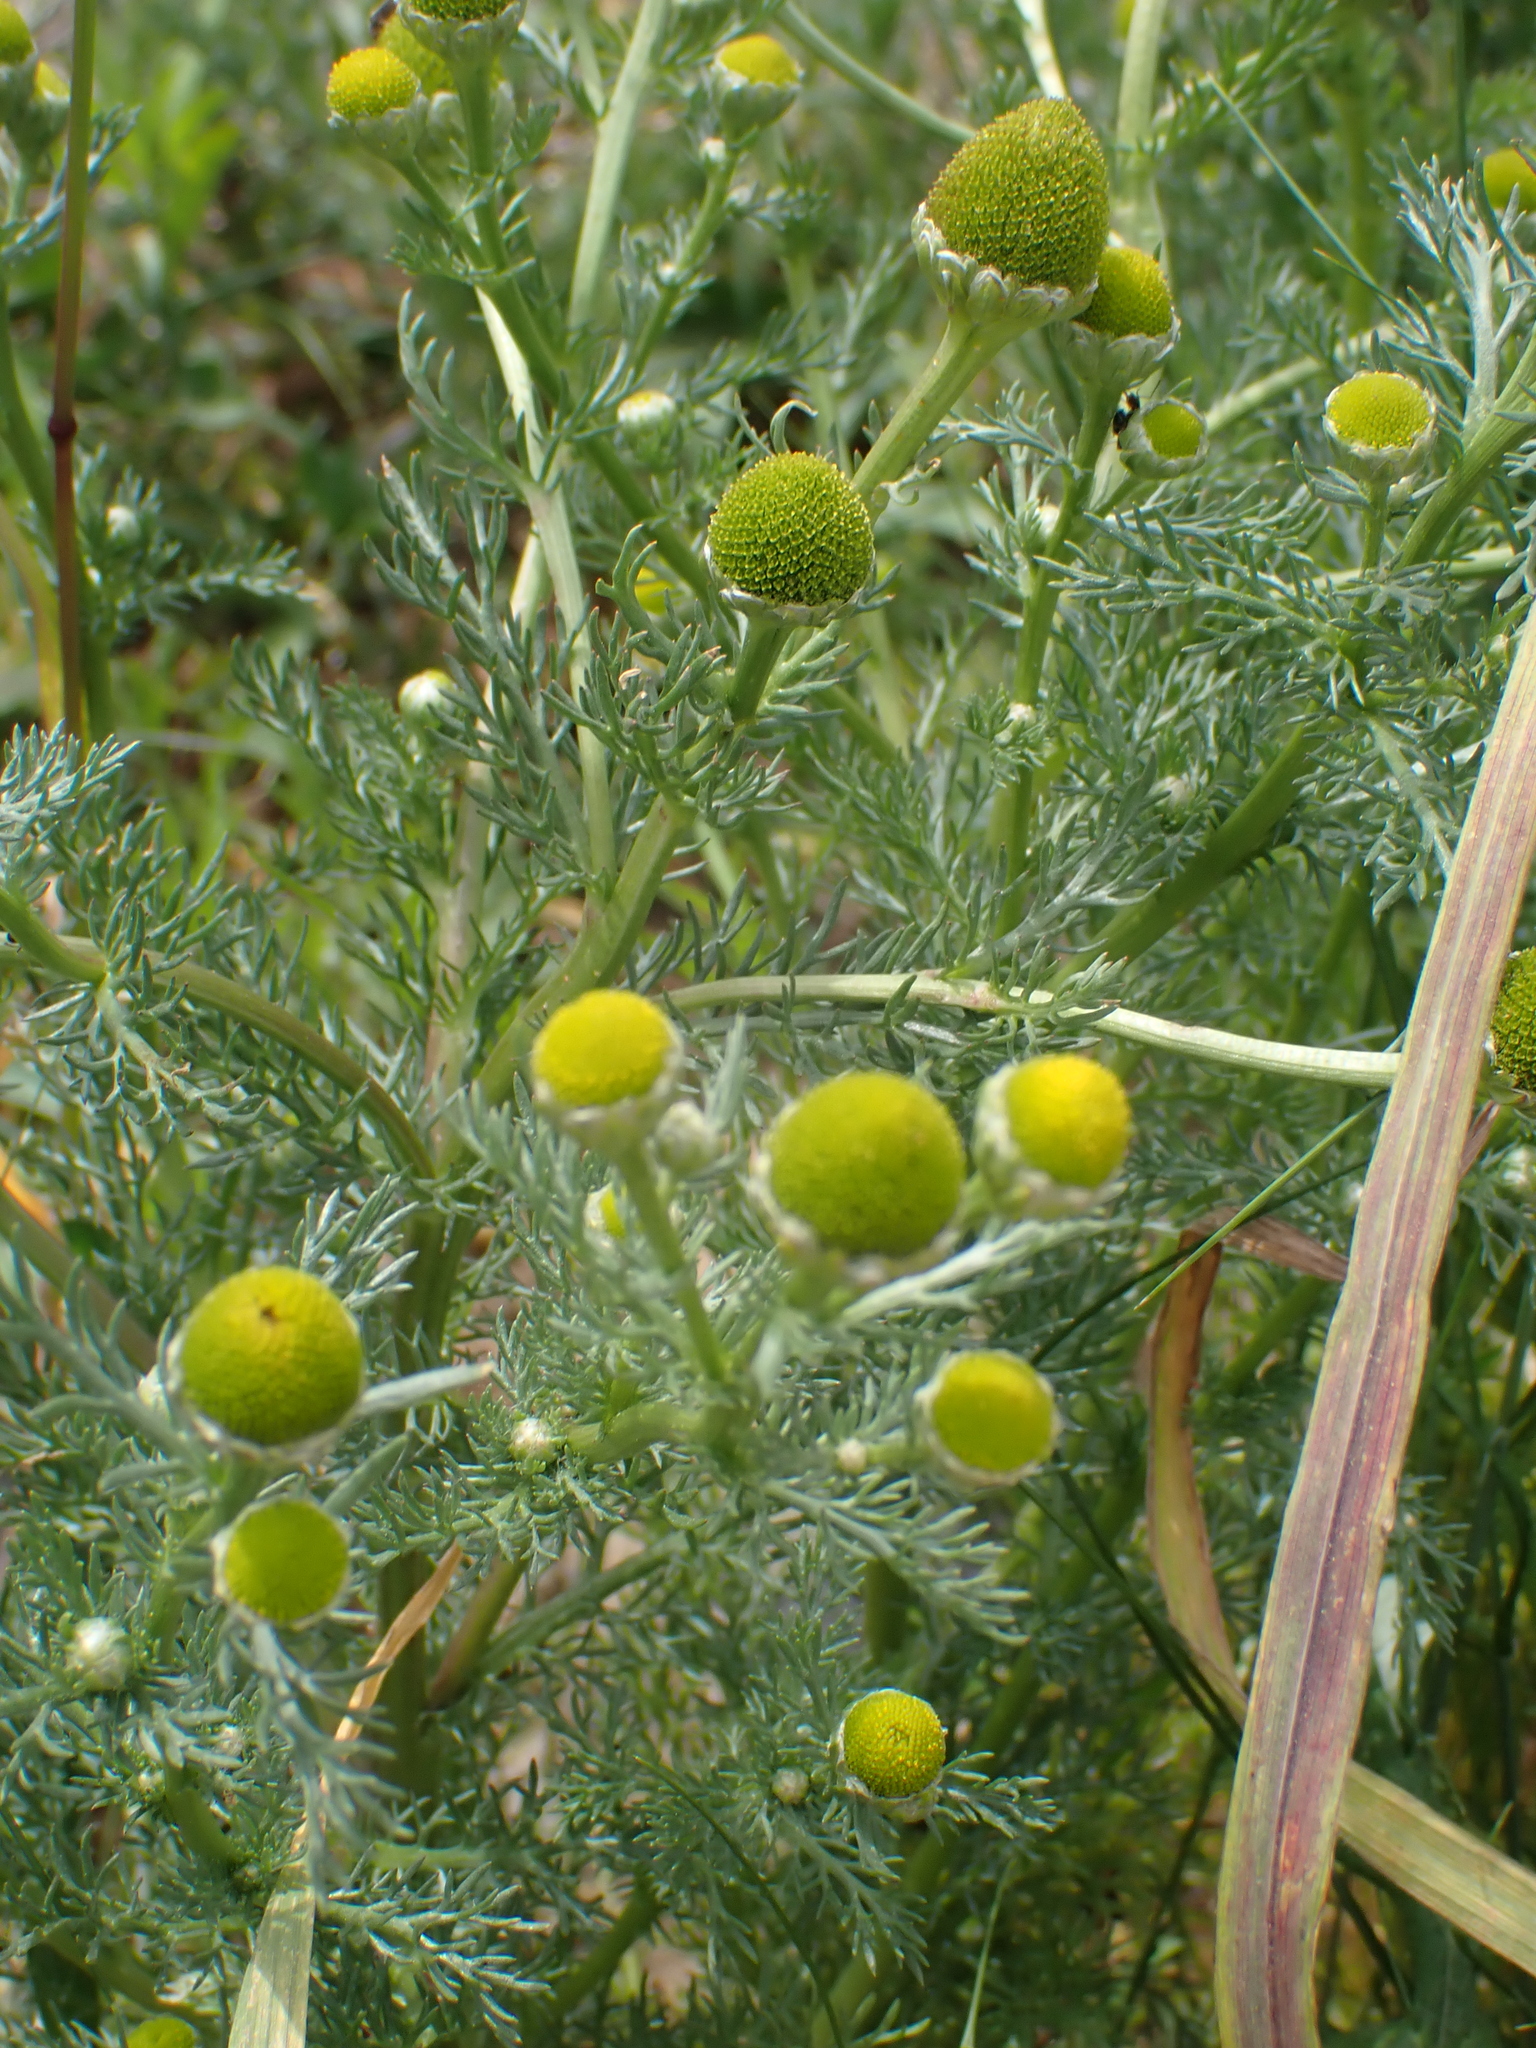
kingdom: Plantae
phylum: Tracheophyta
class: Magnoliopsida
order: Asterales
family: Asteraceae
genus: Matricaria
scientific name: Matricaria discoidea
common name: Disc mayweed
